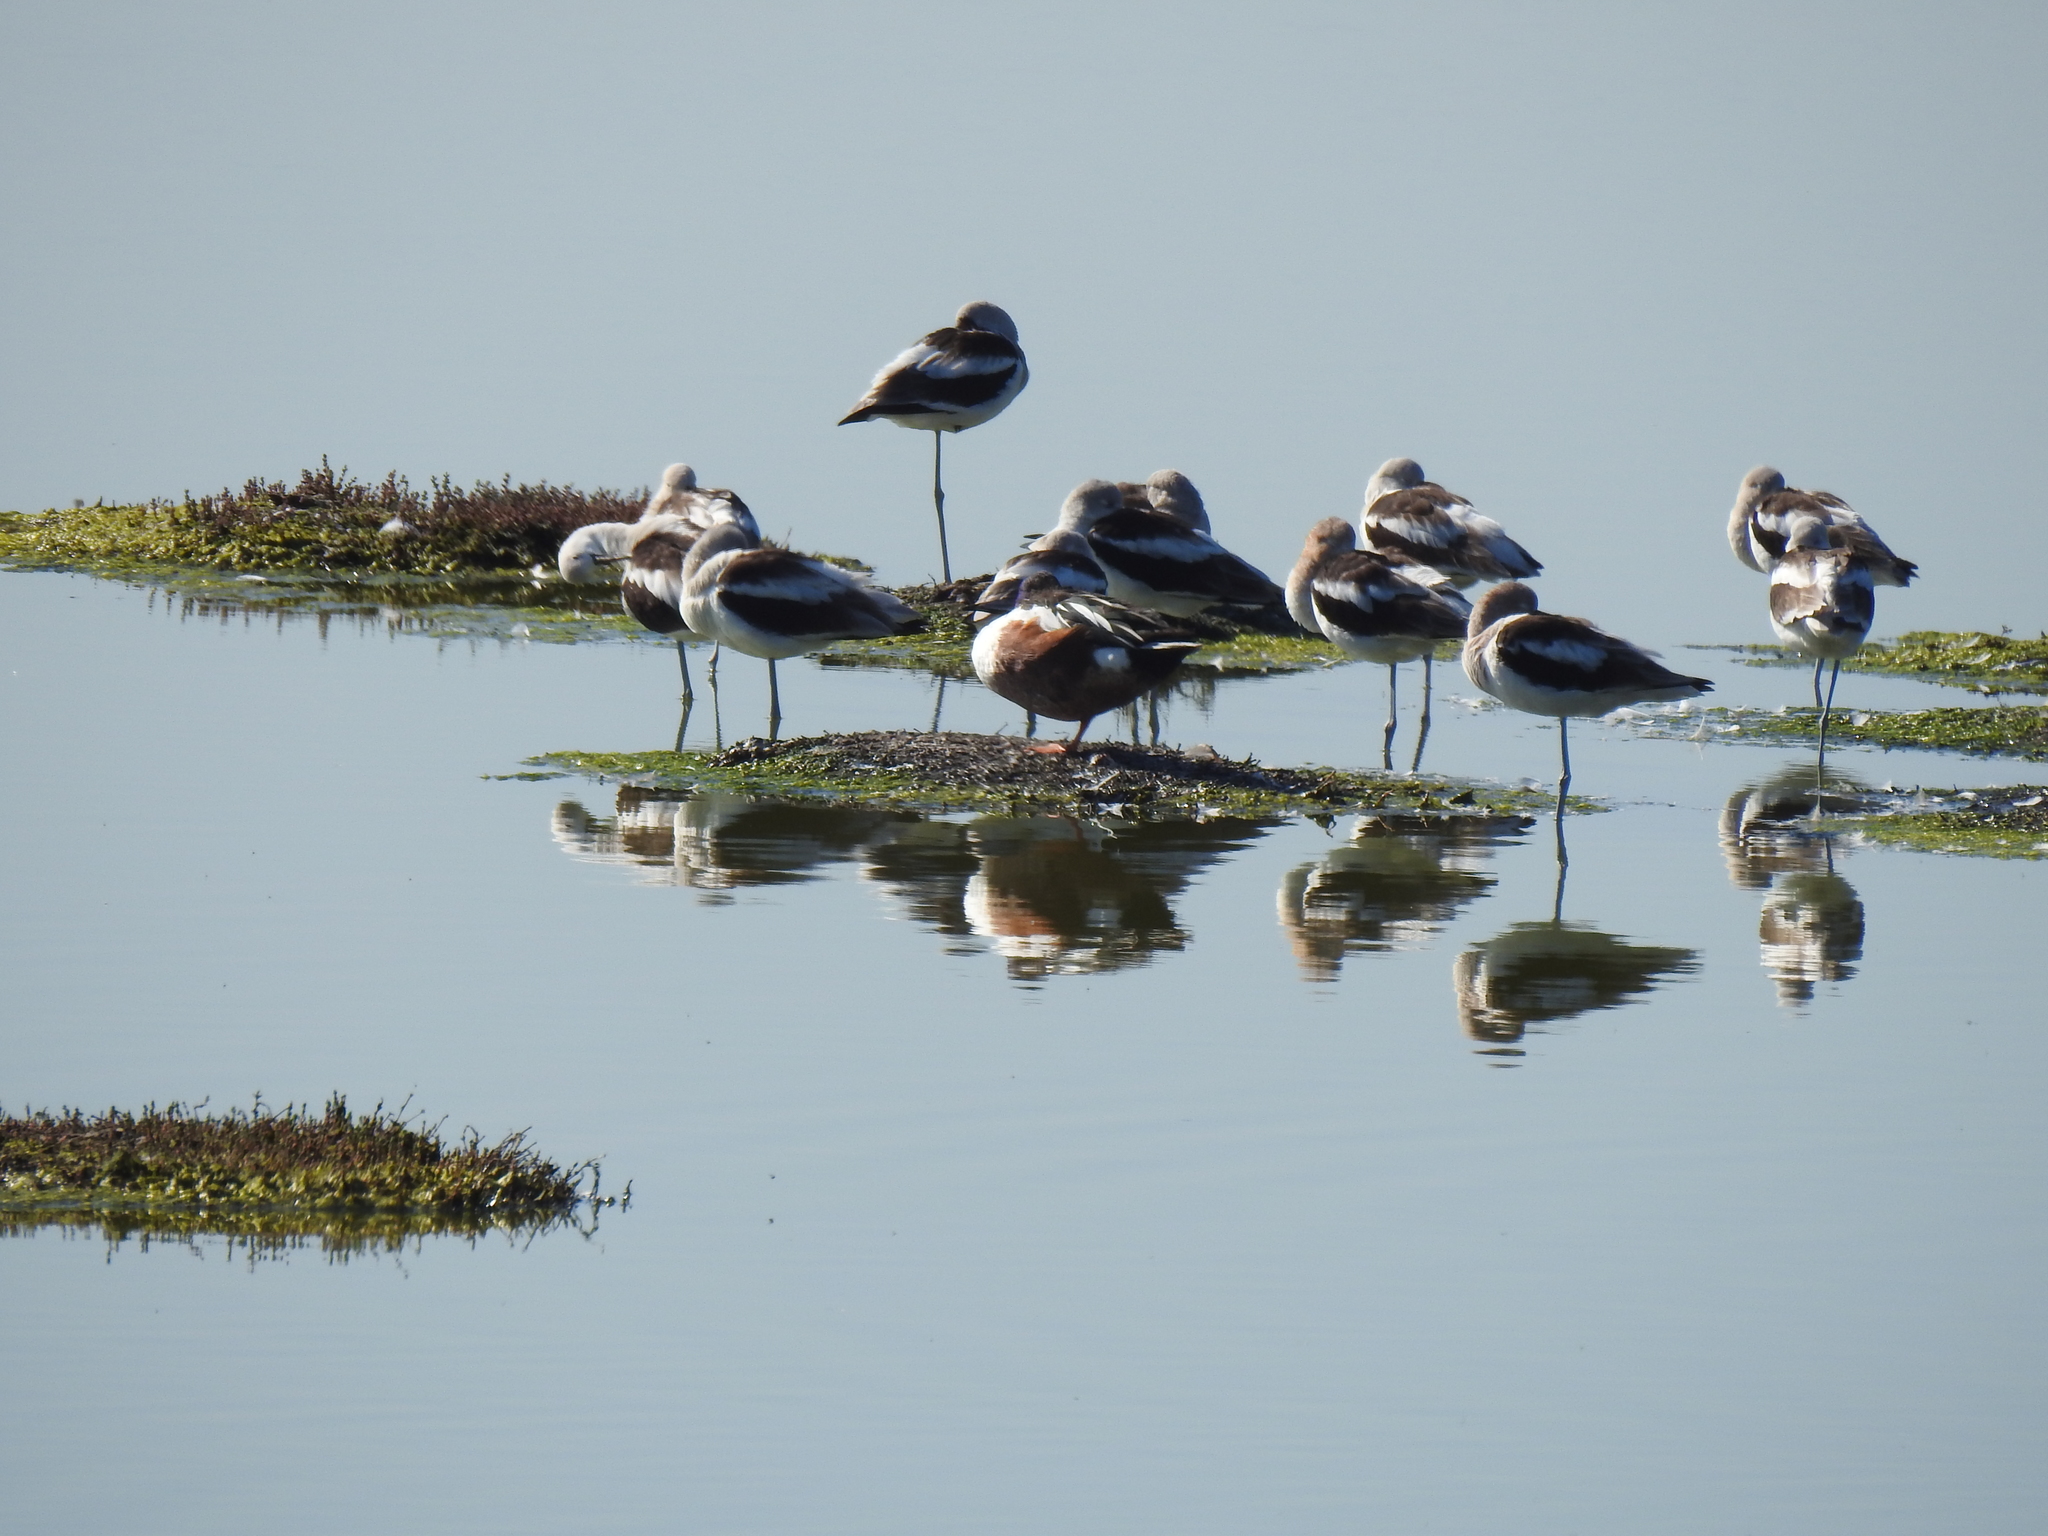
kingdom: Animalia
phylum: Chordata
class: Aves
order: Charadriiformes
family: Recurvirostridae
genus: Recurvirostra
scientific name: Recurvirostra americana
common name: American avocet
